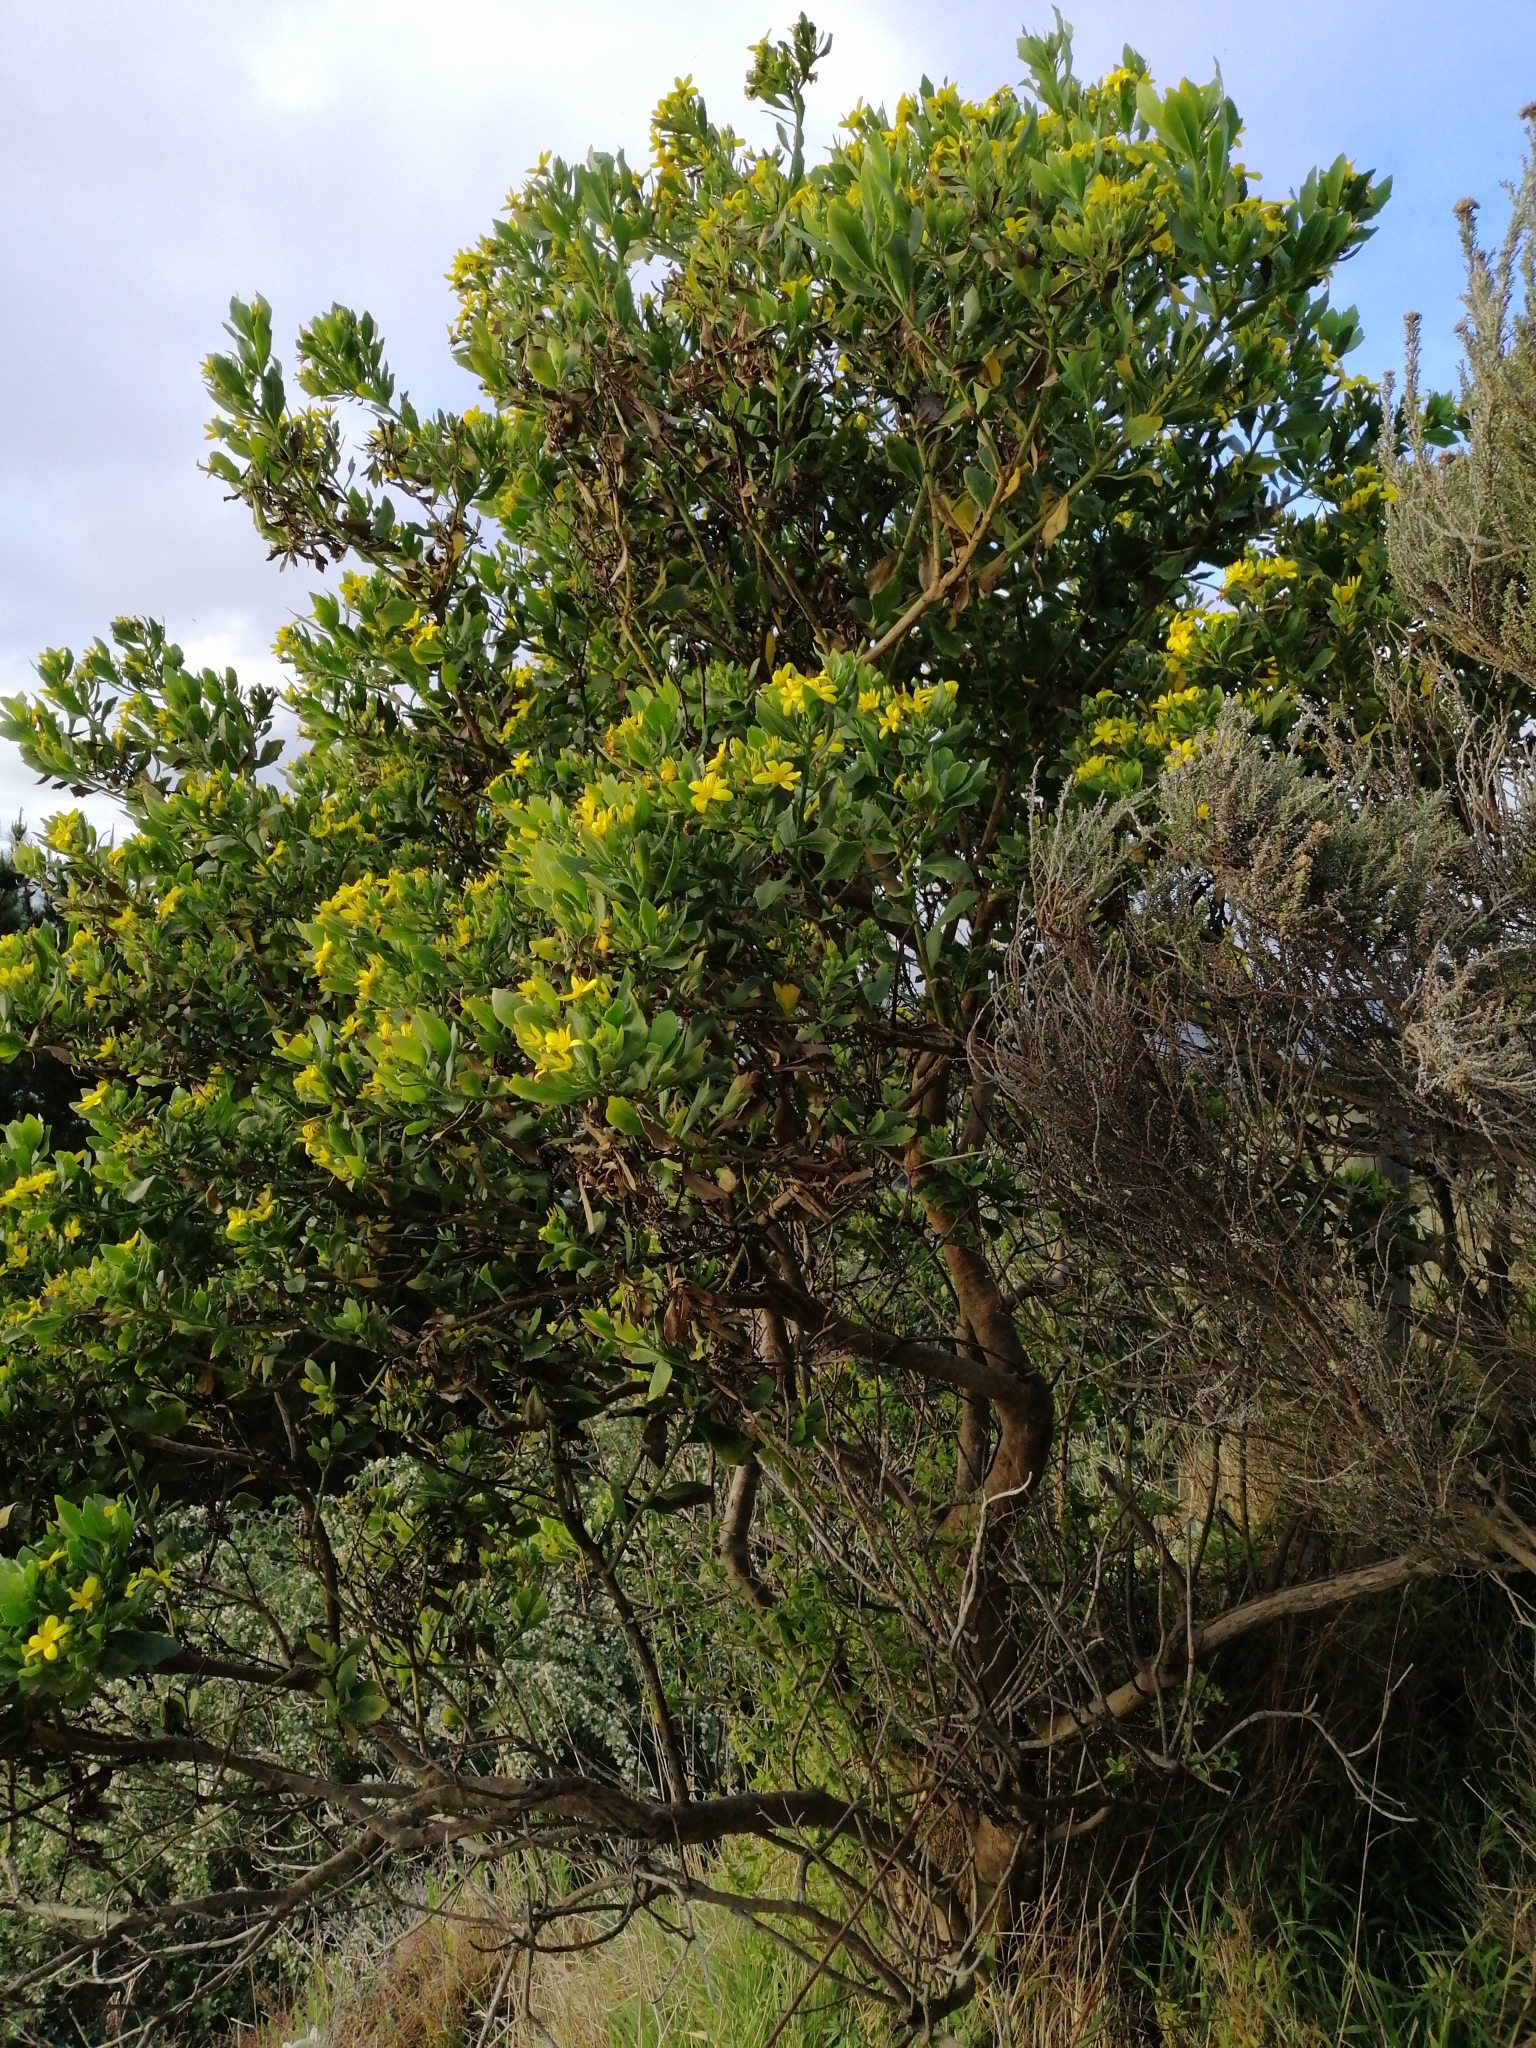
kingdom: Plantae
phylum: Tracheophyta
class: Magnoliopsida
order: Asterales
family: Asteraceae
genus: Osteospermum
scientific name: Osteospermum moniliferum
